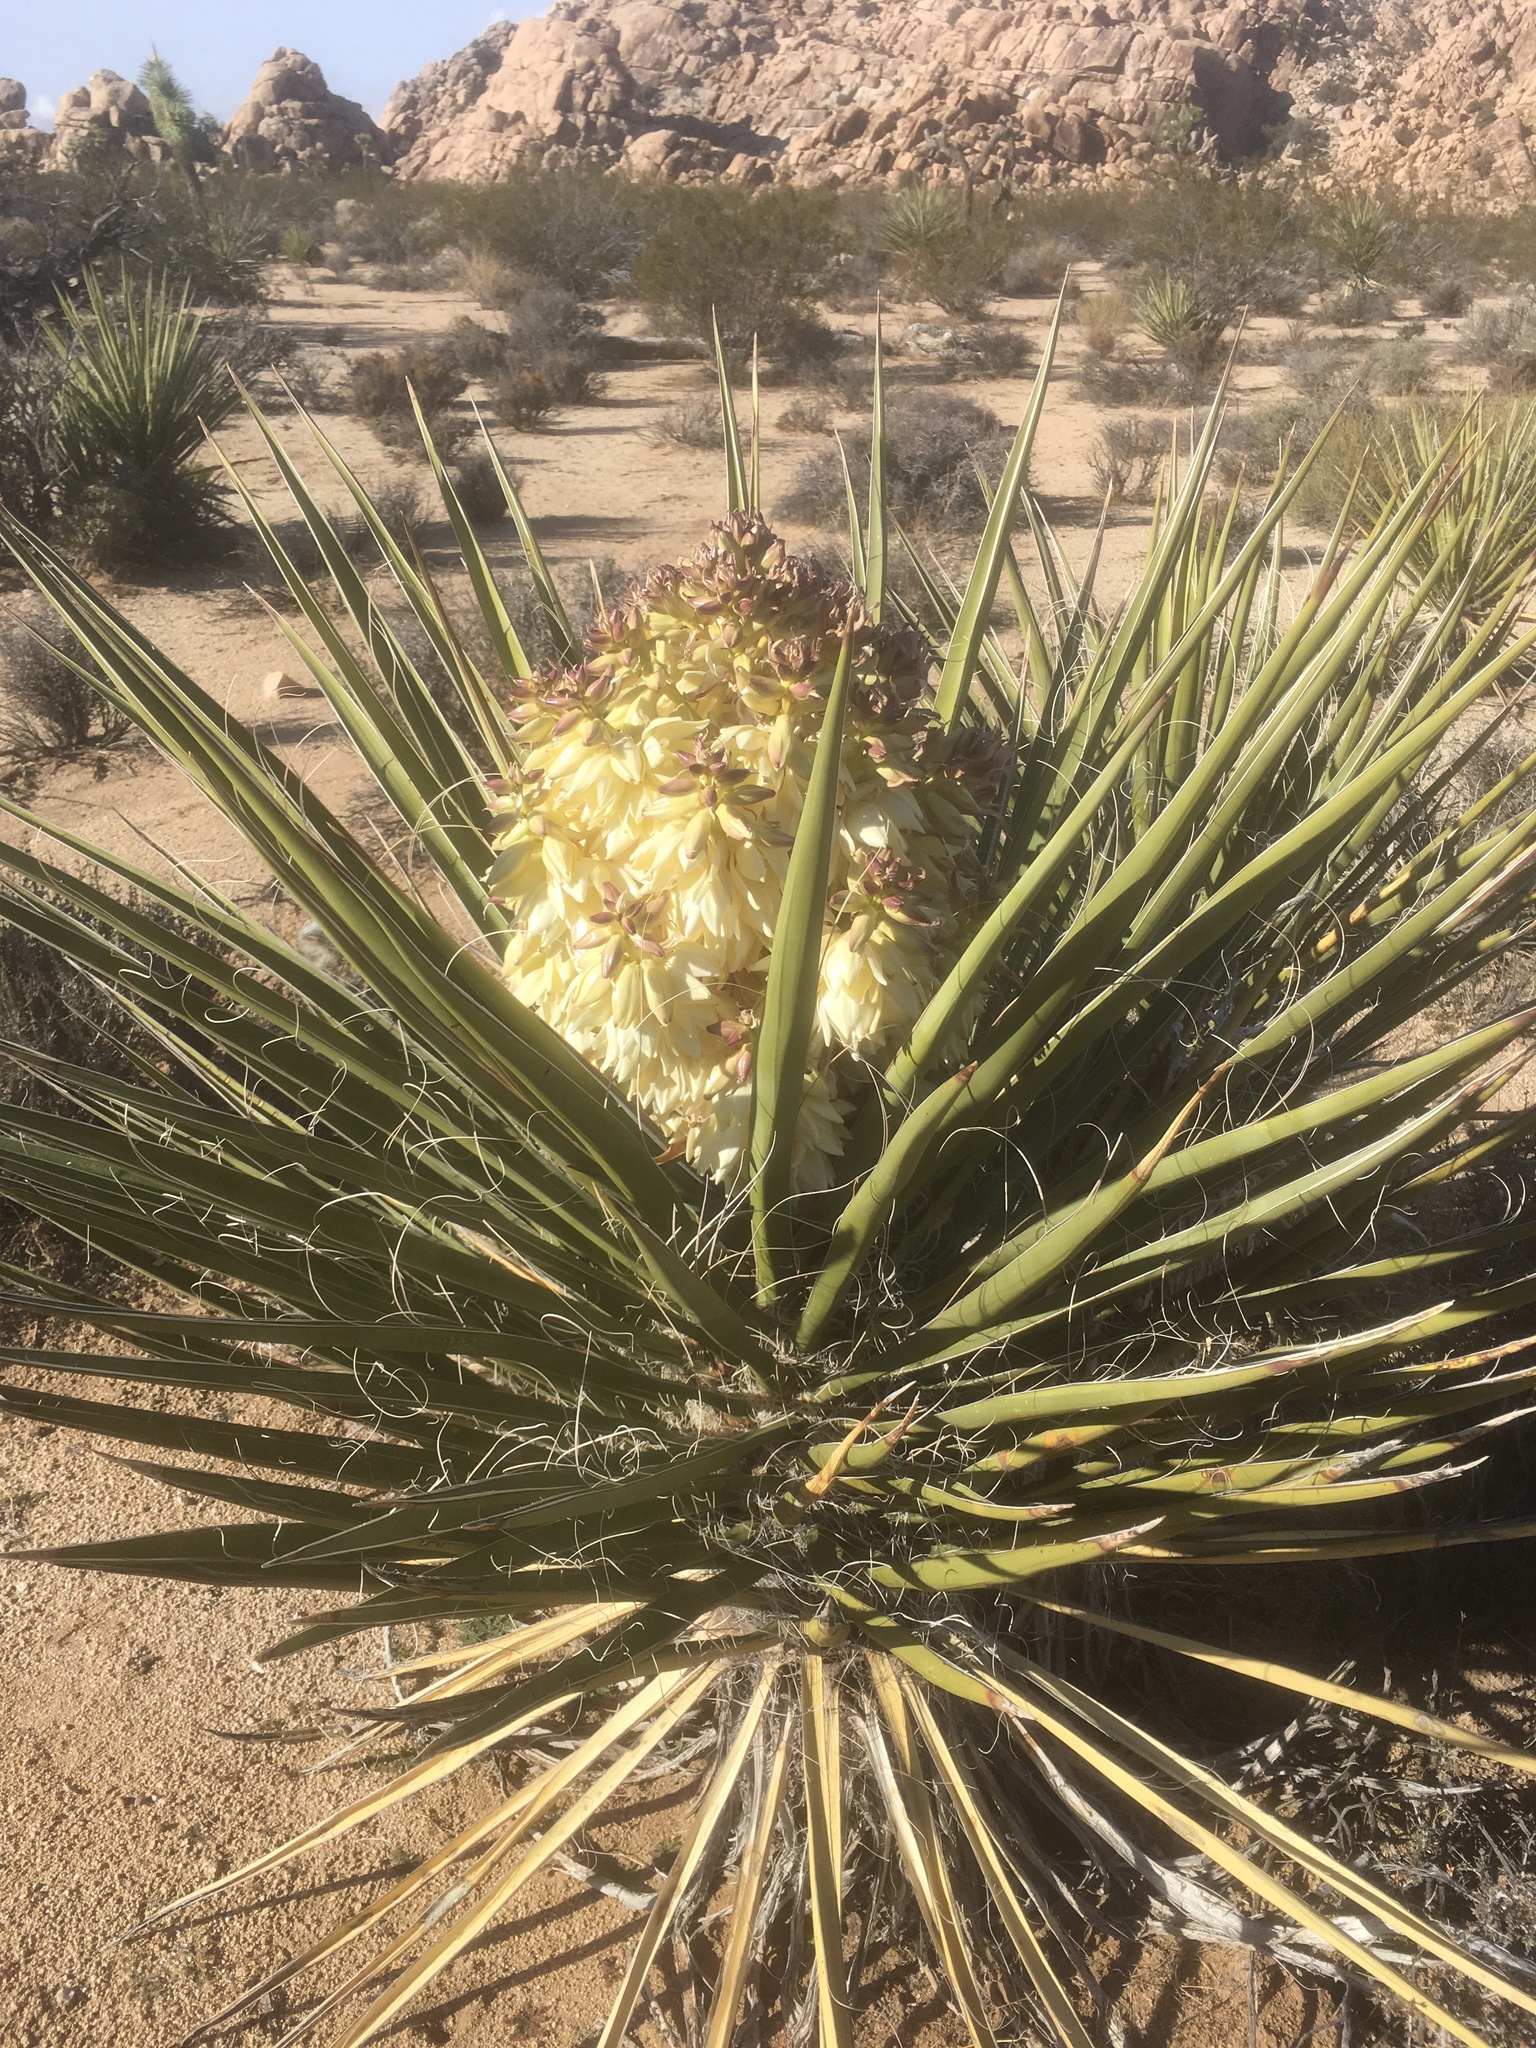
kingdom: Plantae
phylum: Tracheophyta
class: Liliopsida
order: Asparagales
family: Asparagaceae
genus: Yucca
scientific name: Yucca schidigera
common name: Mojave yucca
